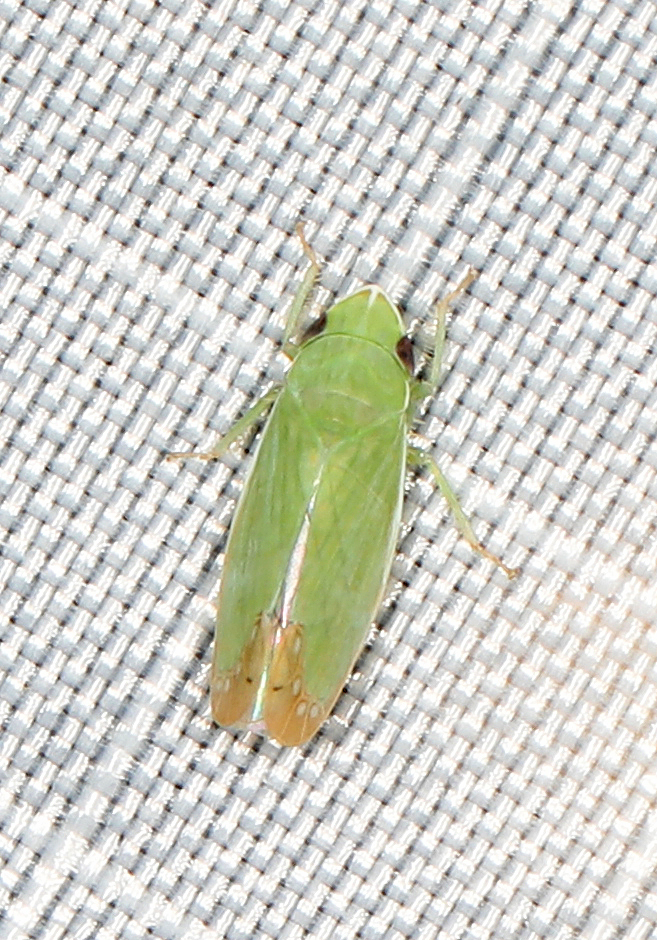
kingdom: Animalia
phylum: Arthropoda
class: Insecta
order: Hemiptera
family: Cicadellidae
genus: Memnonia
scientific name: Memnonia flavida
